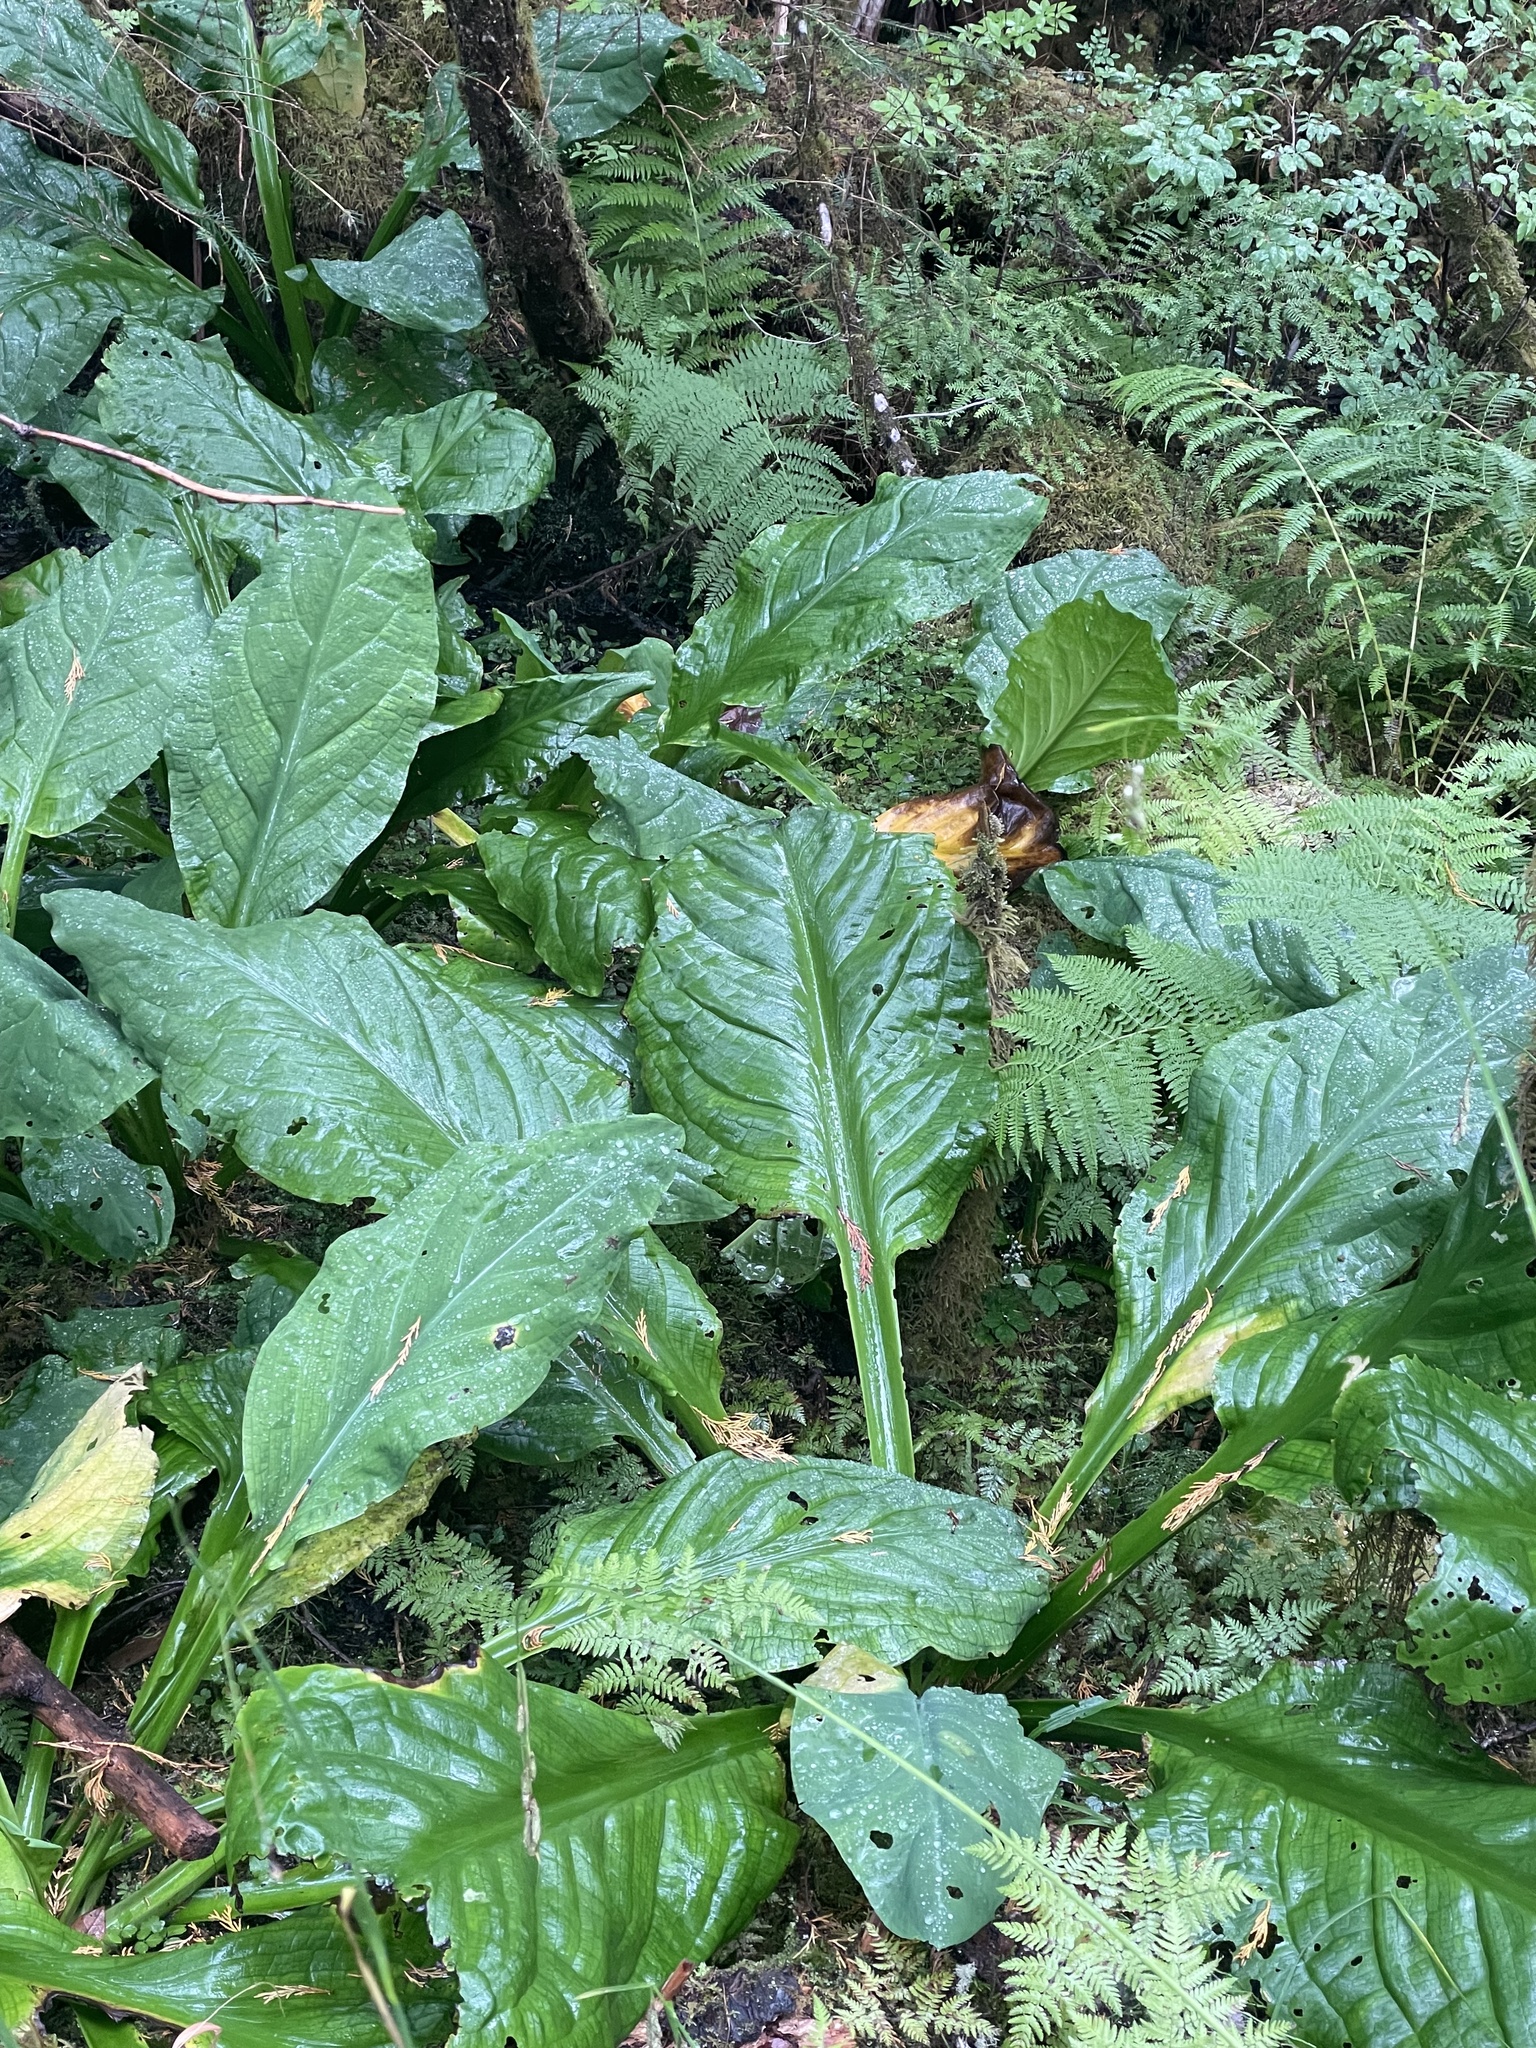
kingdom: Plantae
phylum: Tracheophyta
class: Liliopsida
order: Alismatales
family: Araceae
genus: Lysichiton
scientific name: Lysichiton americanus
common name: American skunk cabbage
